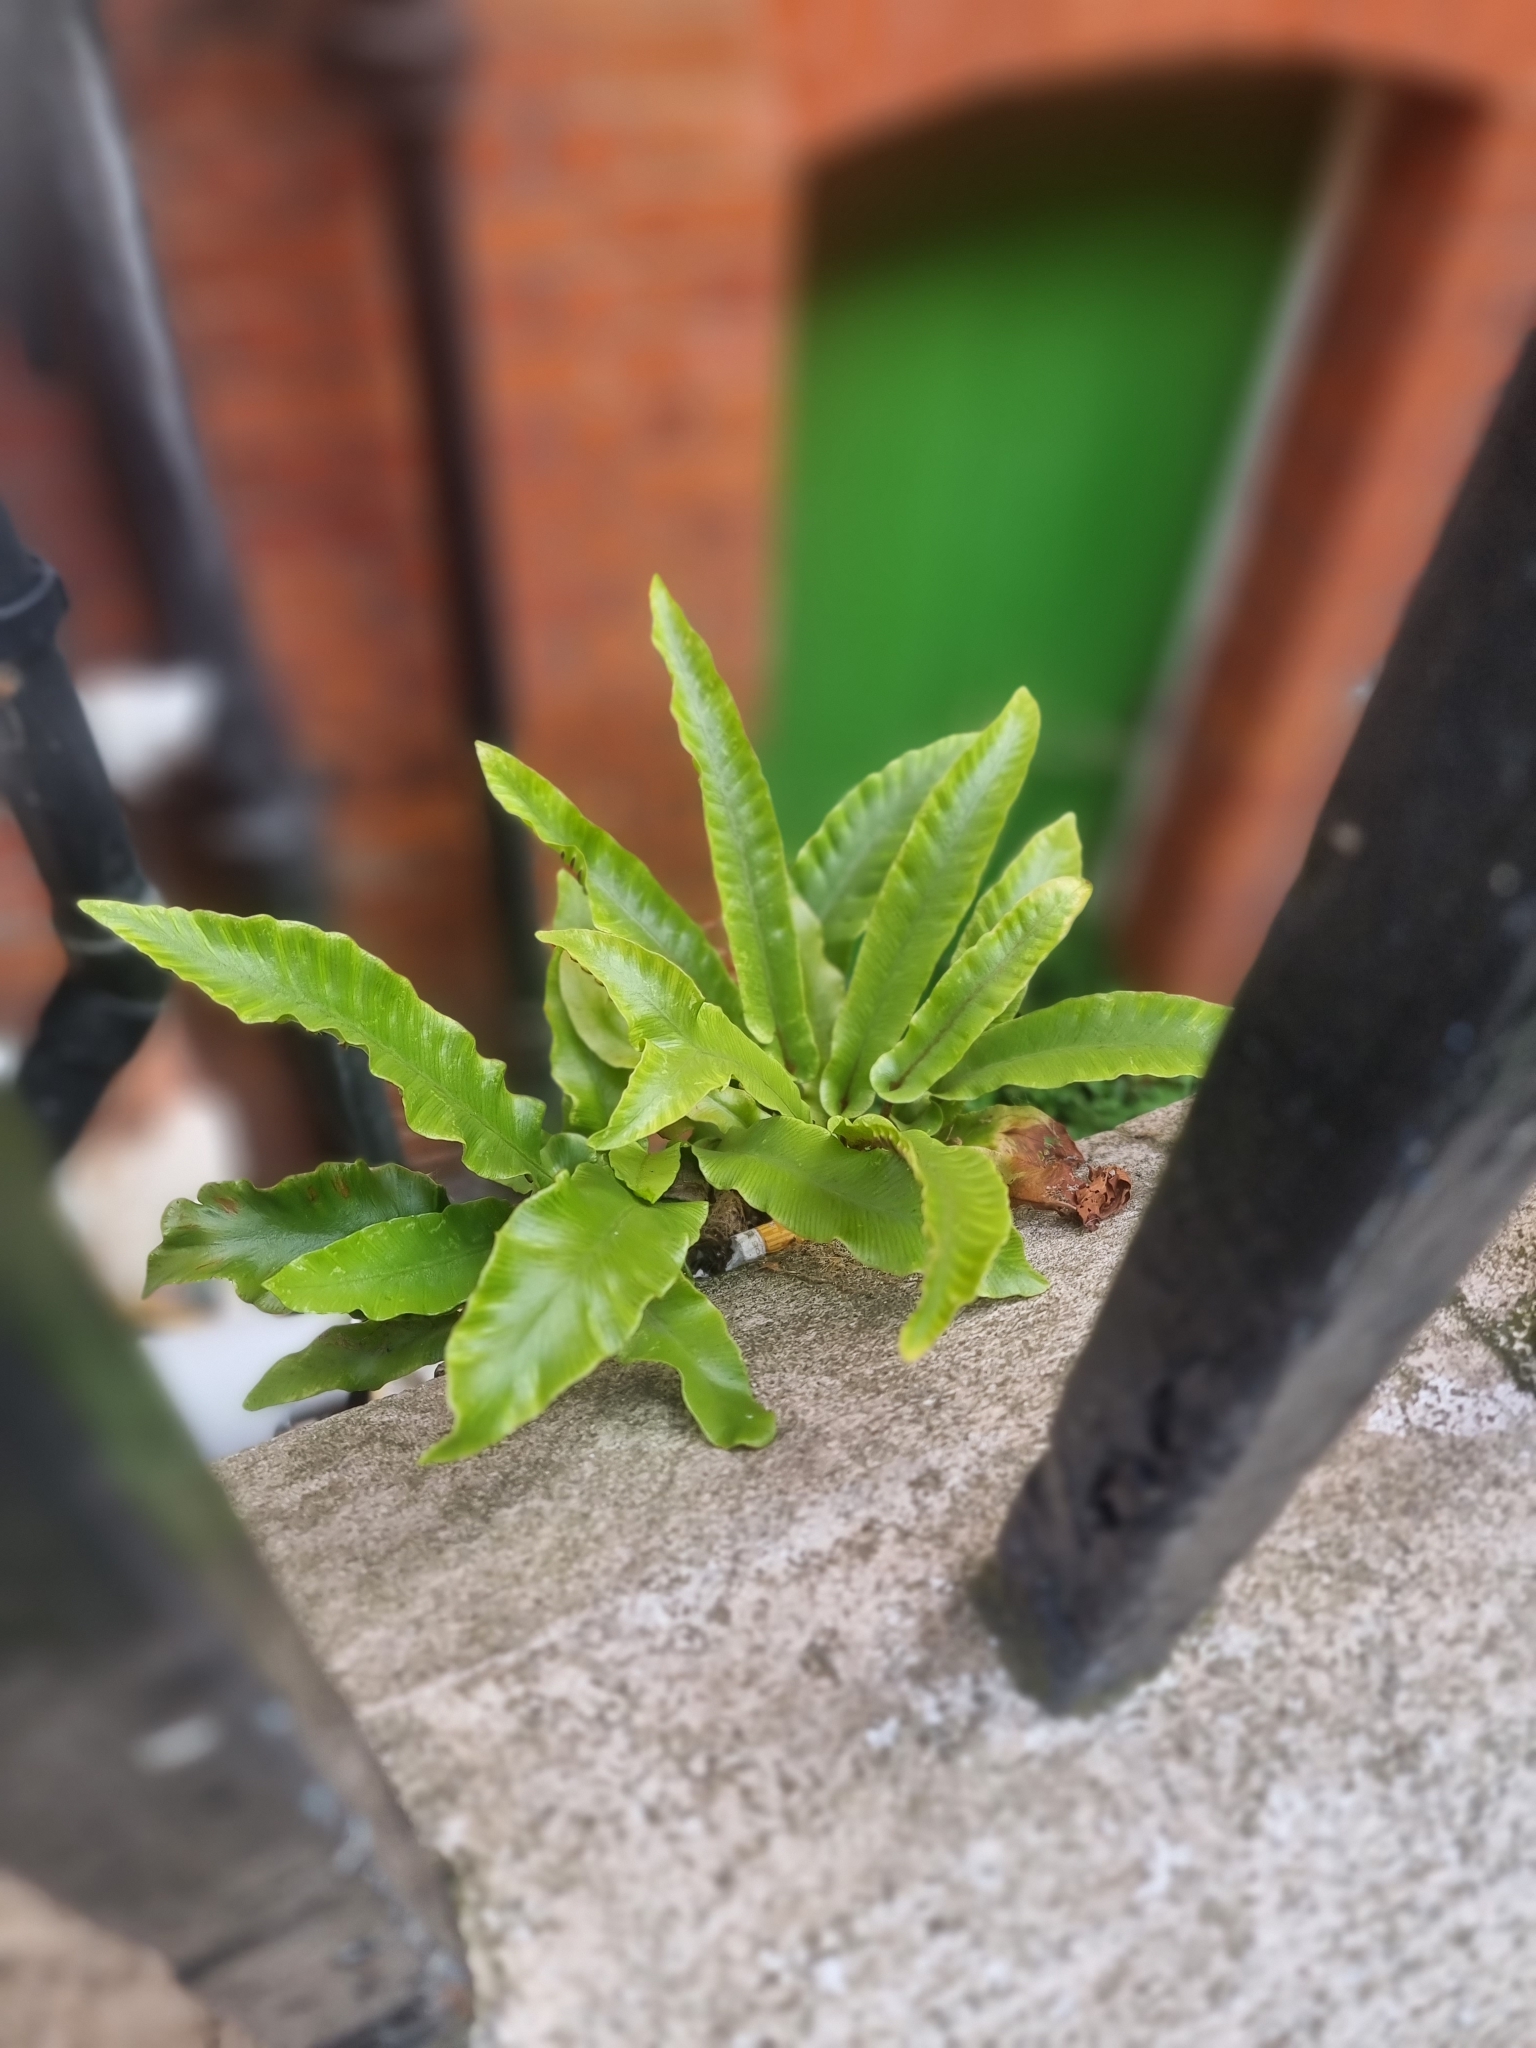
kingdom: Plantae
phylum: Tracheophyta
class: Polypodiopsida
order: Polypodiales
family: Aspleniaceae
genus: Asplenium
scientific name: Asplenium scolopendrium
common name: Hart's-tongue fern
